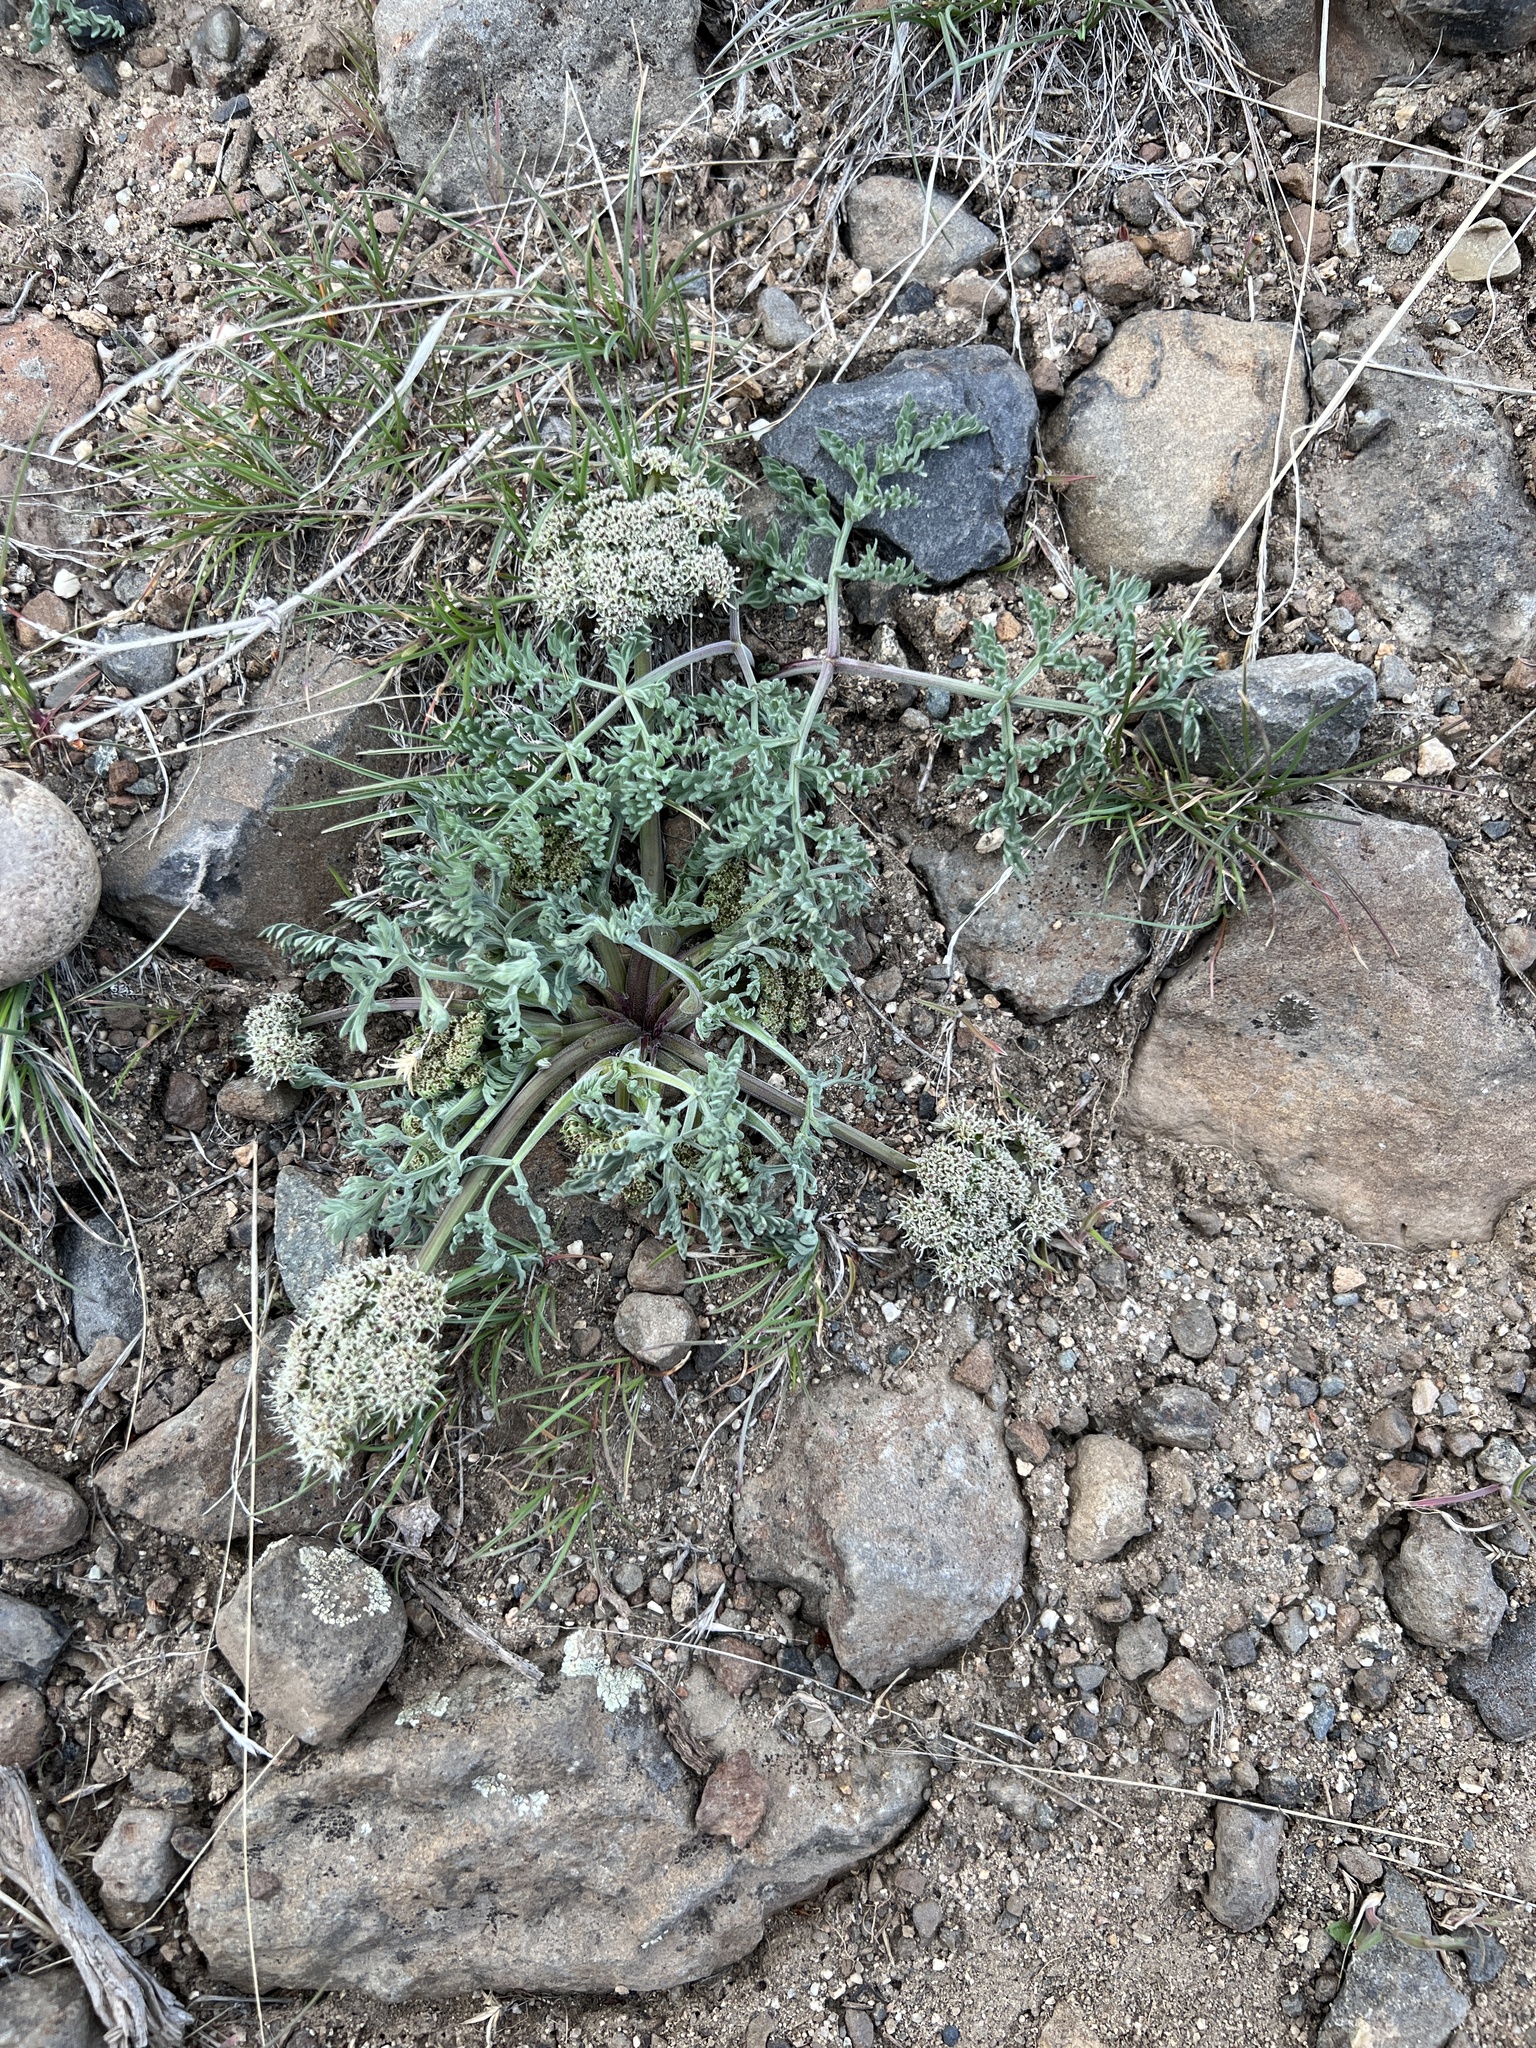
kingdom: Plantae
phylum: Tracheophyta
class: Magnoliopsida
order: Apiales
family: Apiaceae
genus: Lomatium
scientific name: Lomatium macrocarpum
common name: Big-seed biscuitroot
